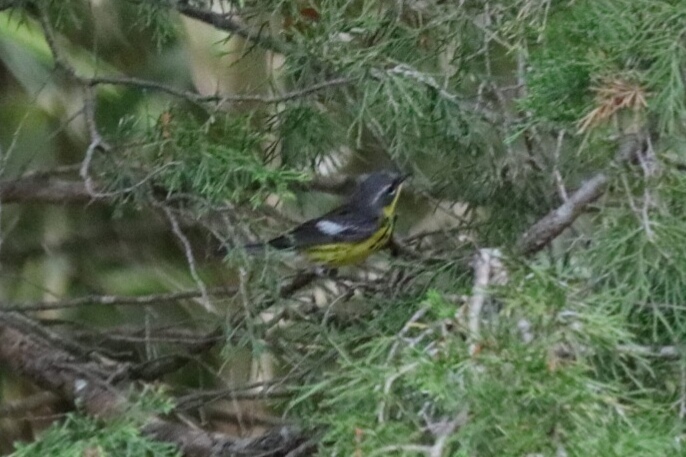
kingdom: Animalia
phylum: Chordata
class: Aves
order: Passeriformes
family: Parulidae
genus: Setophaga
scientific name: Setophaga magnolia
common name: Magnolia warbler
